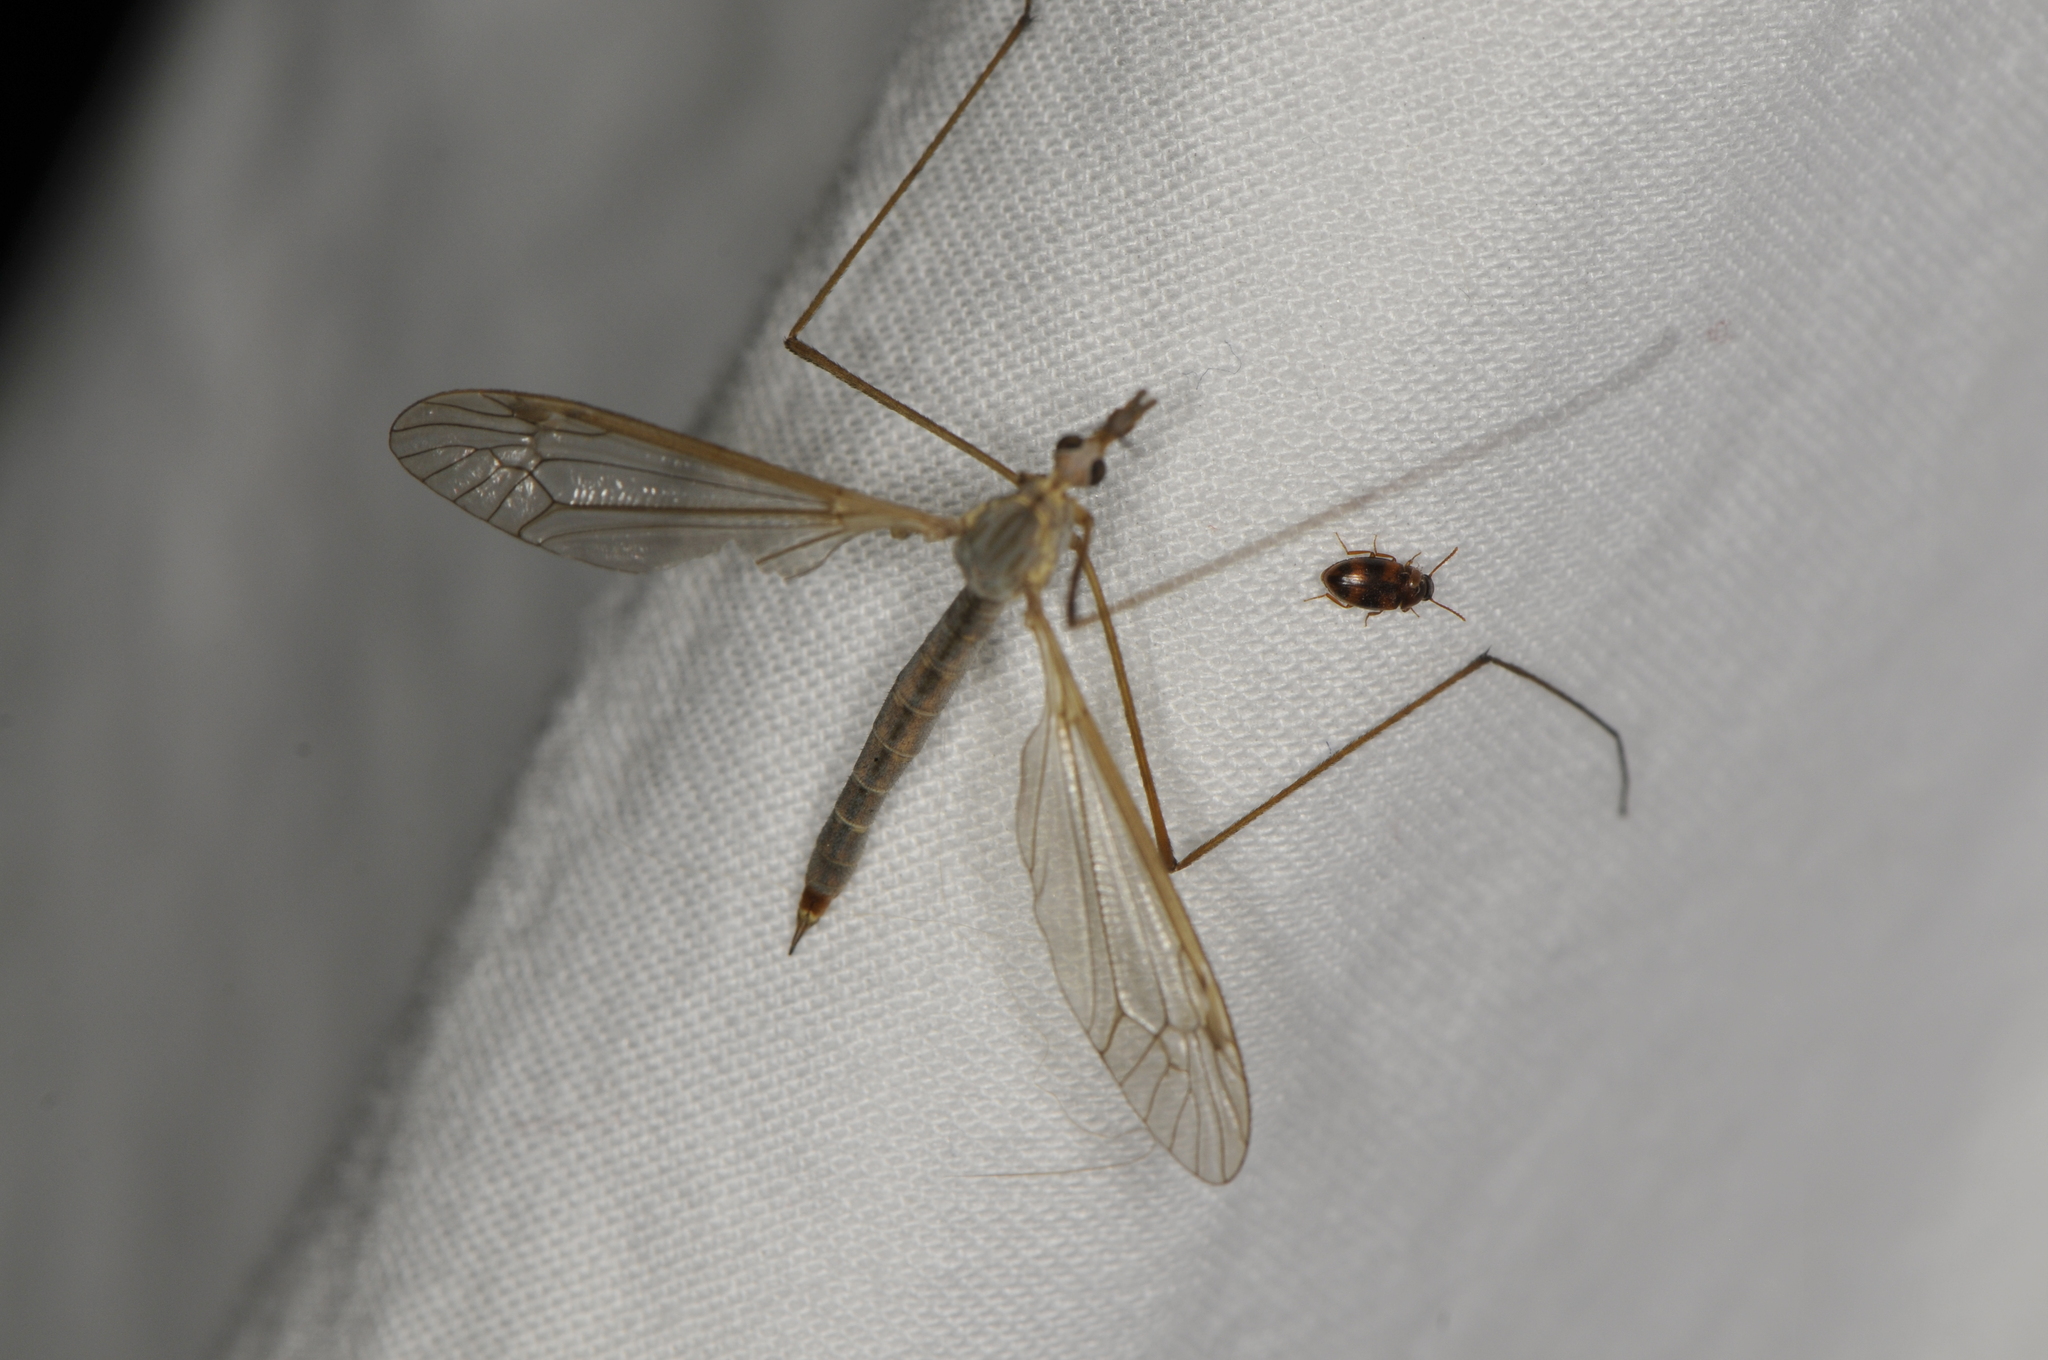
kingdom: Animalia
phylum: Arthropoda
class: Insecta
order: Coleoptera
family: Tenebrionidae
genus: Alphitophagus
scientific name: Alphitophagus bifasciatus
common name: Two-banded fungus beetle
